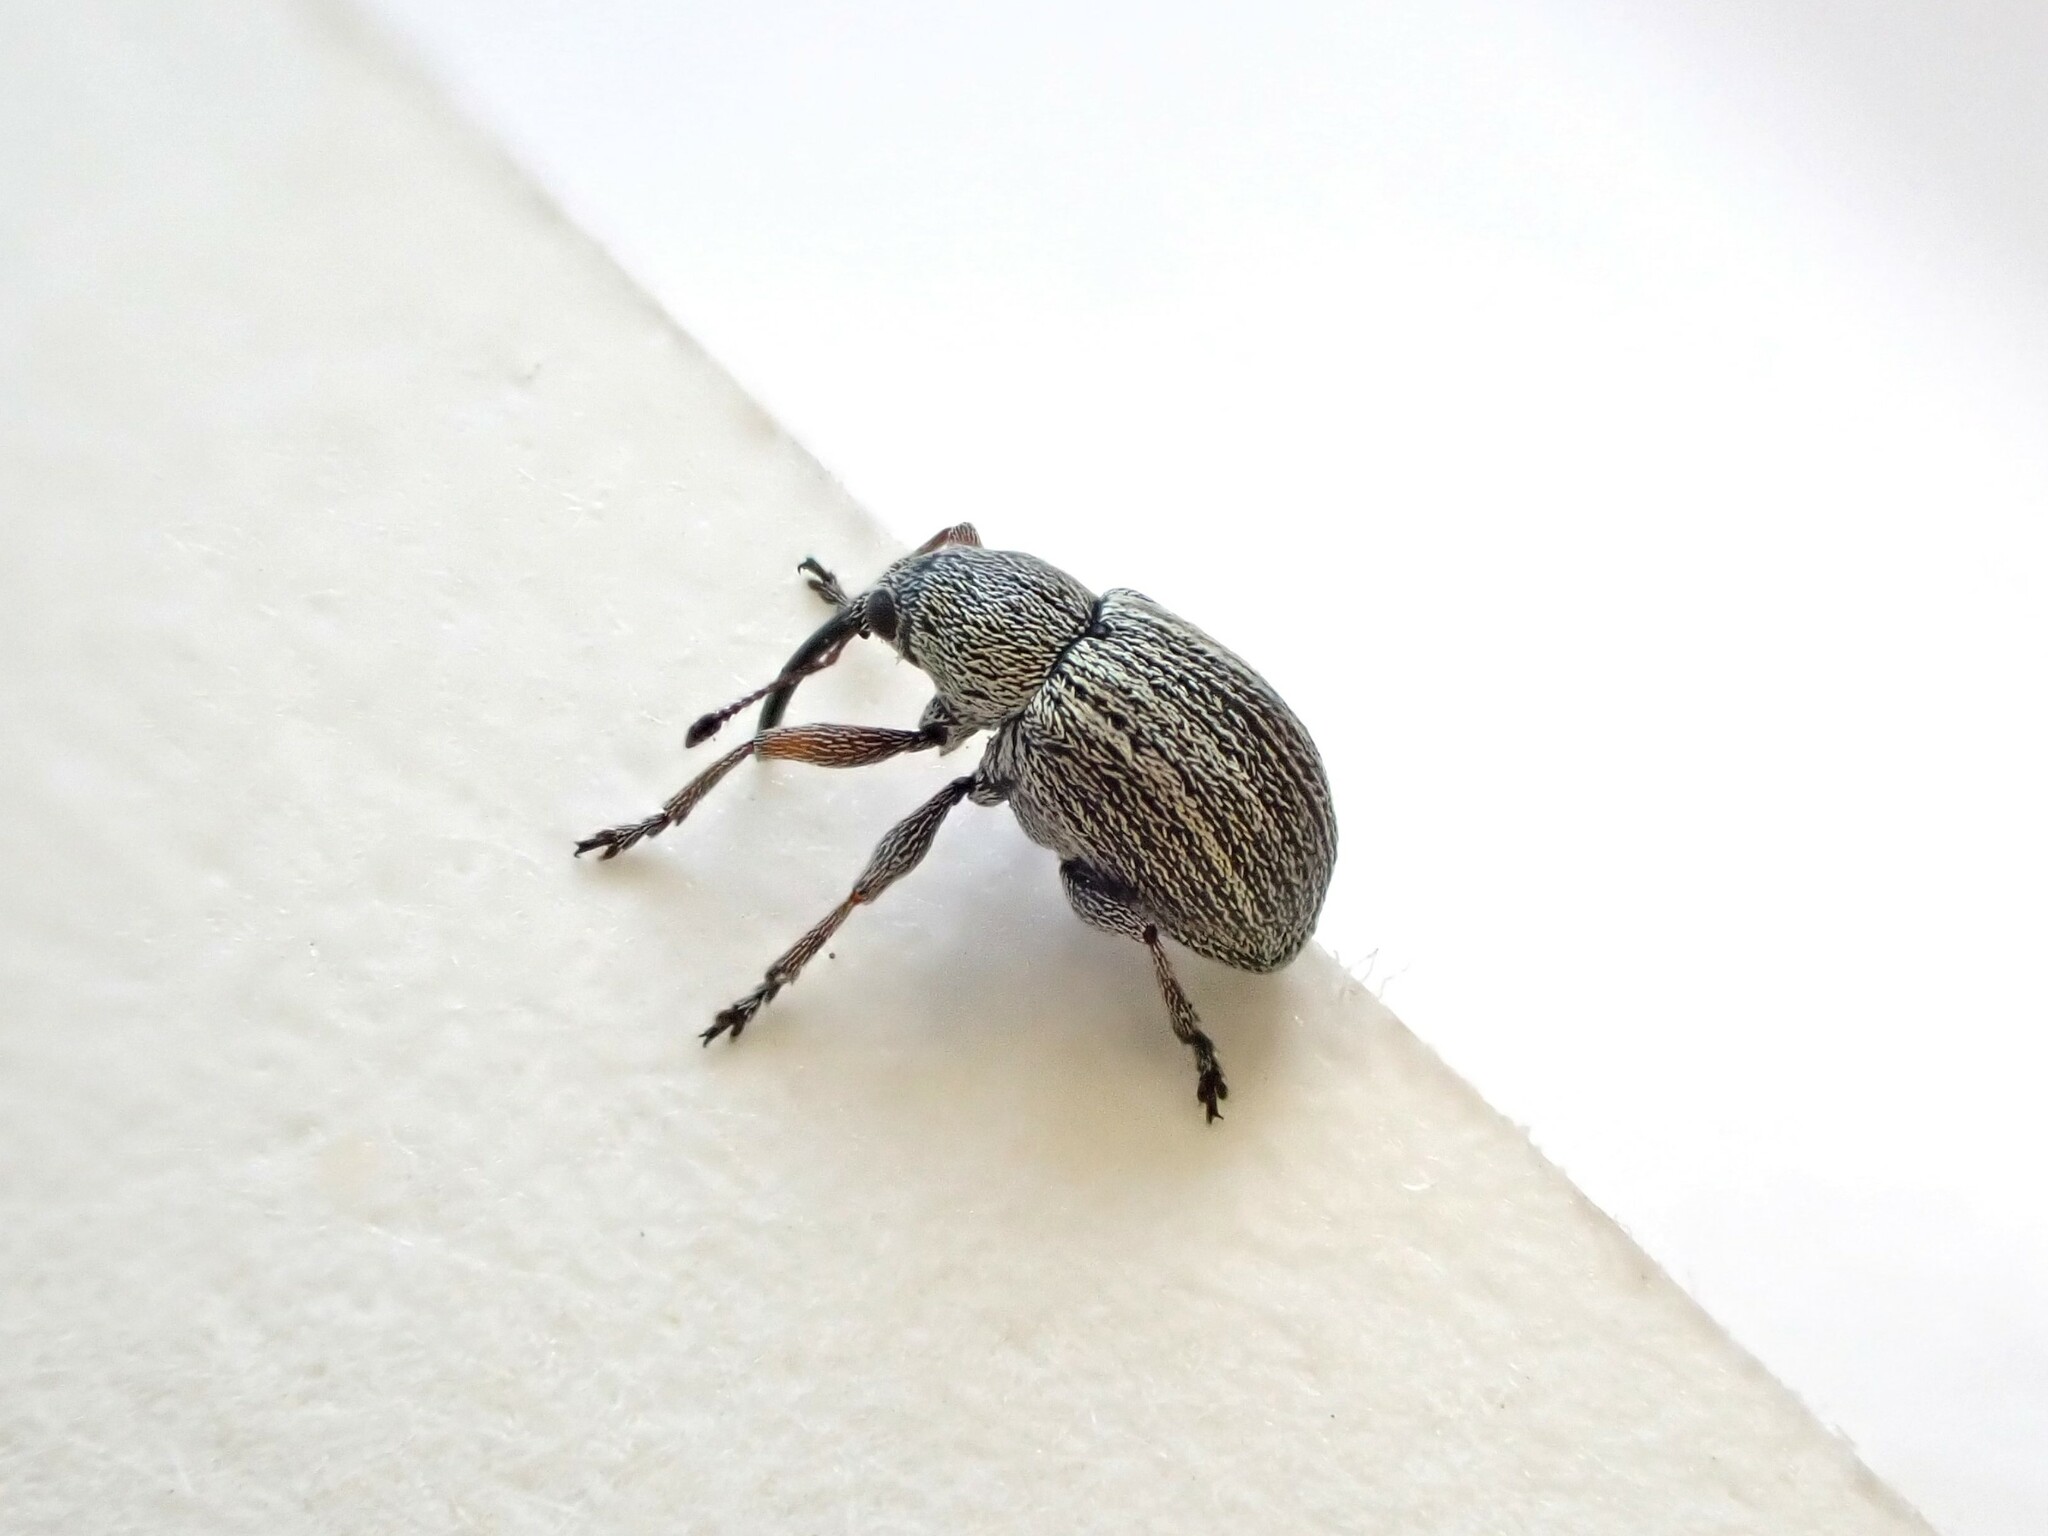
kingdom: Animalia
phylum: Arthropoda
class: Insecta
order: Coleoptera
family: Brentidae
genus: Exapion
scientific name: Exapion ulicis
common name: Gorse seed weevil
